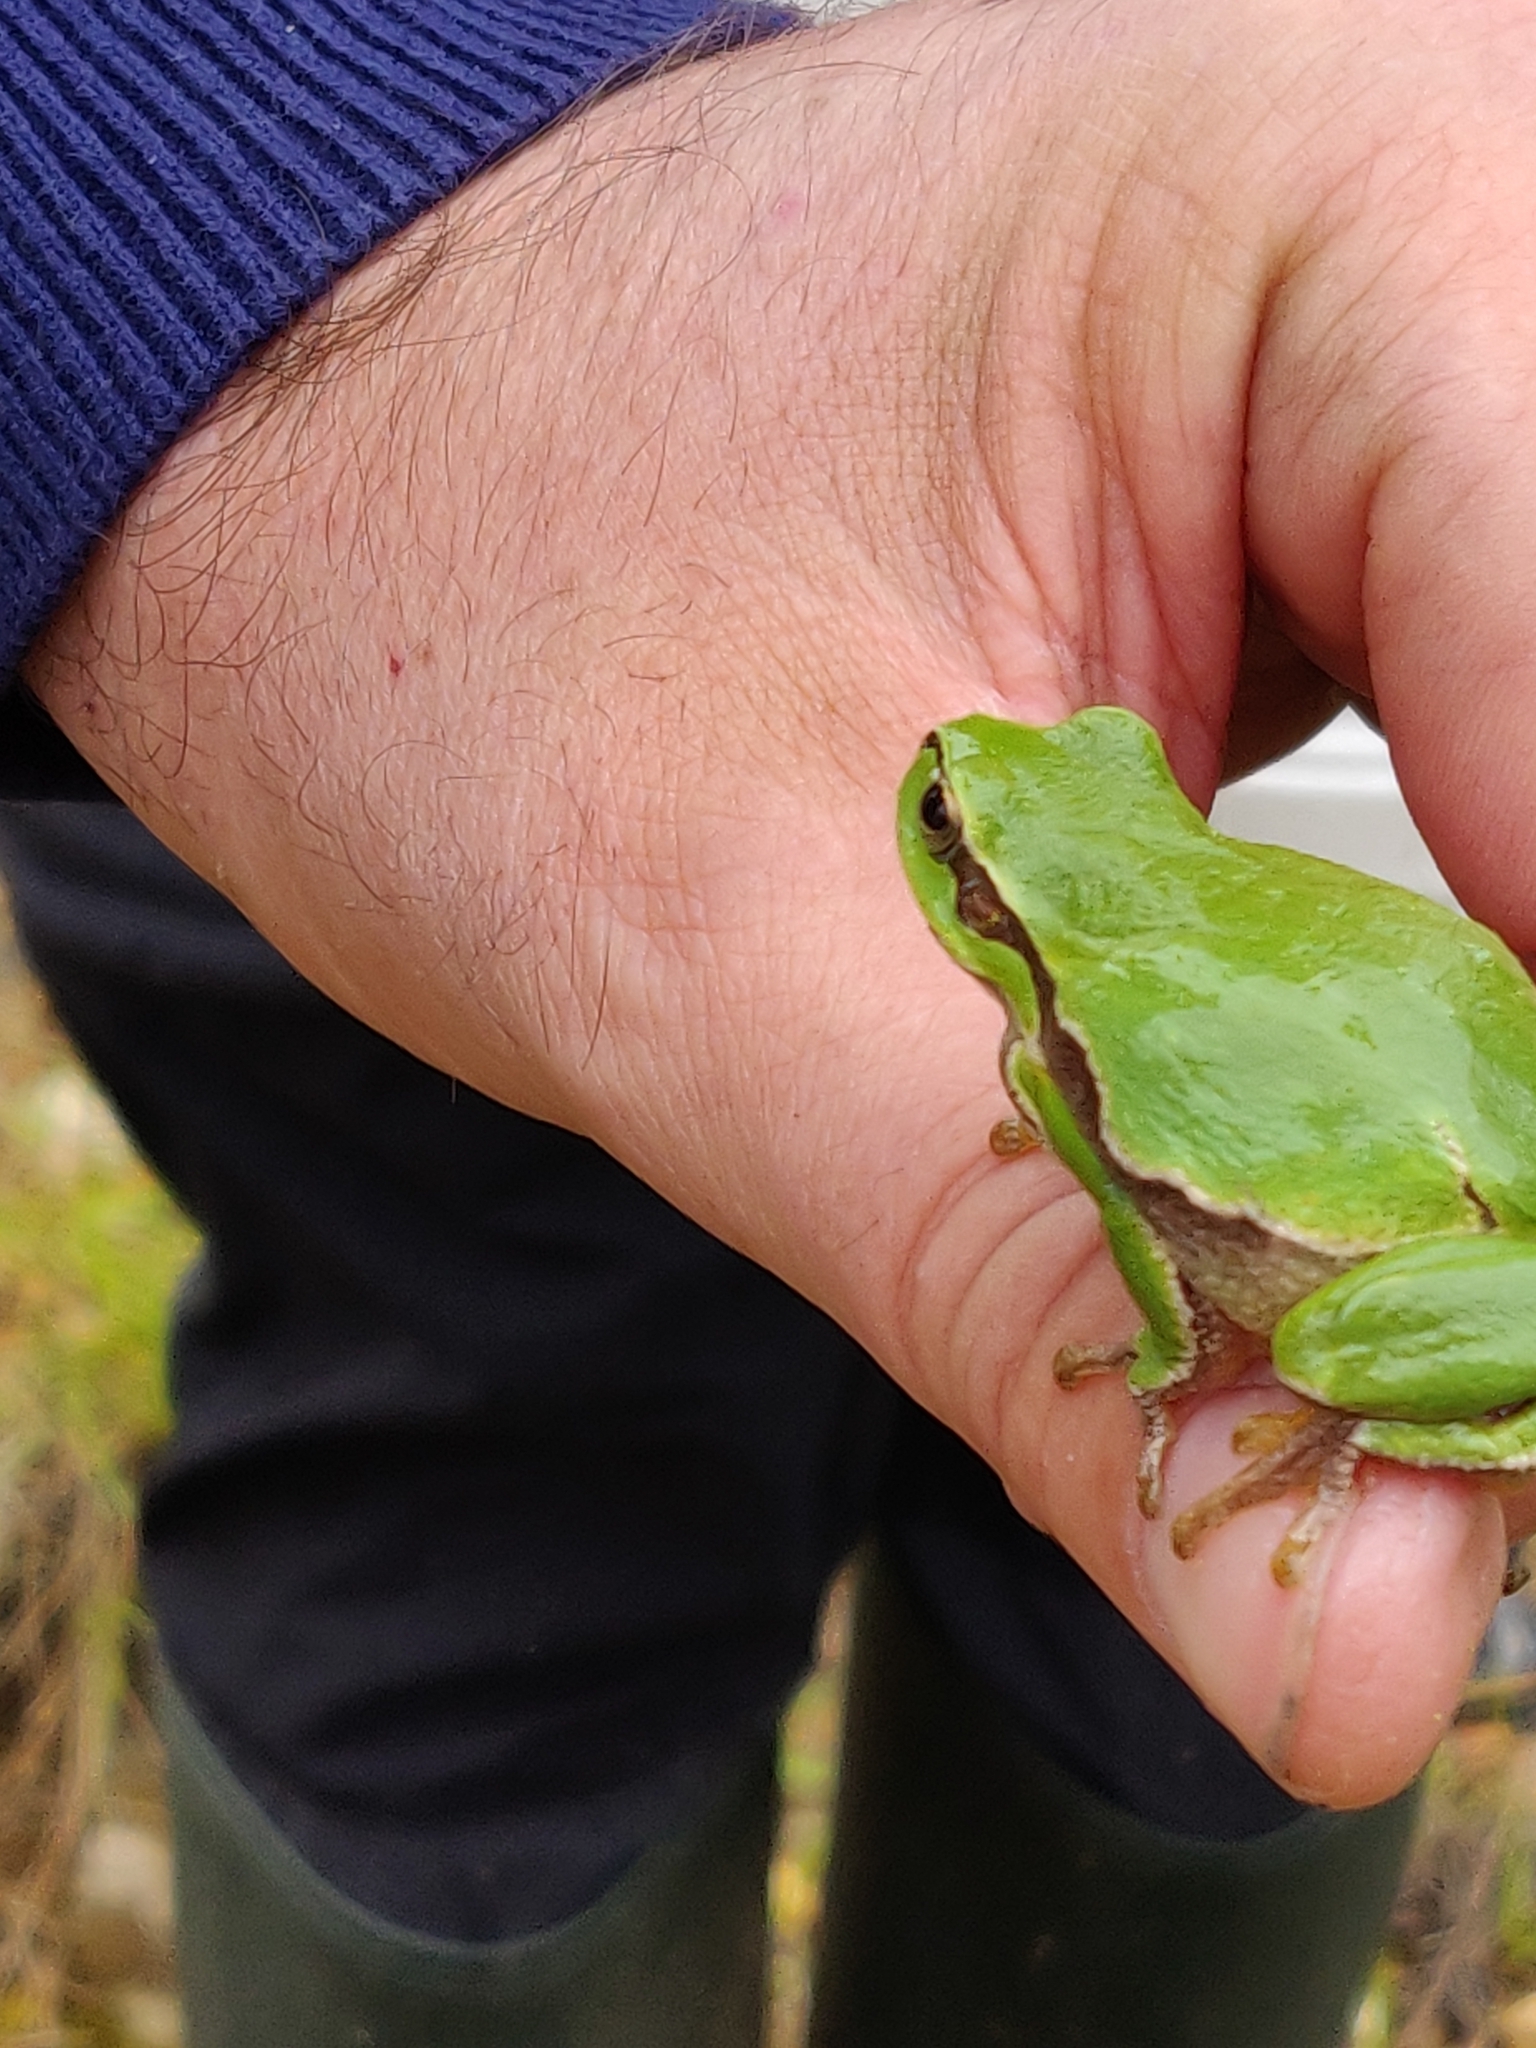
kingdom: Animalia
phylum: Chordata
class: Amphibia
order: Anura
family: Hylidae
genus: Hyla
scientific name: Hyla arborea
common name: Common tree frog
